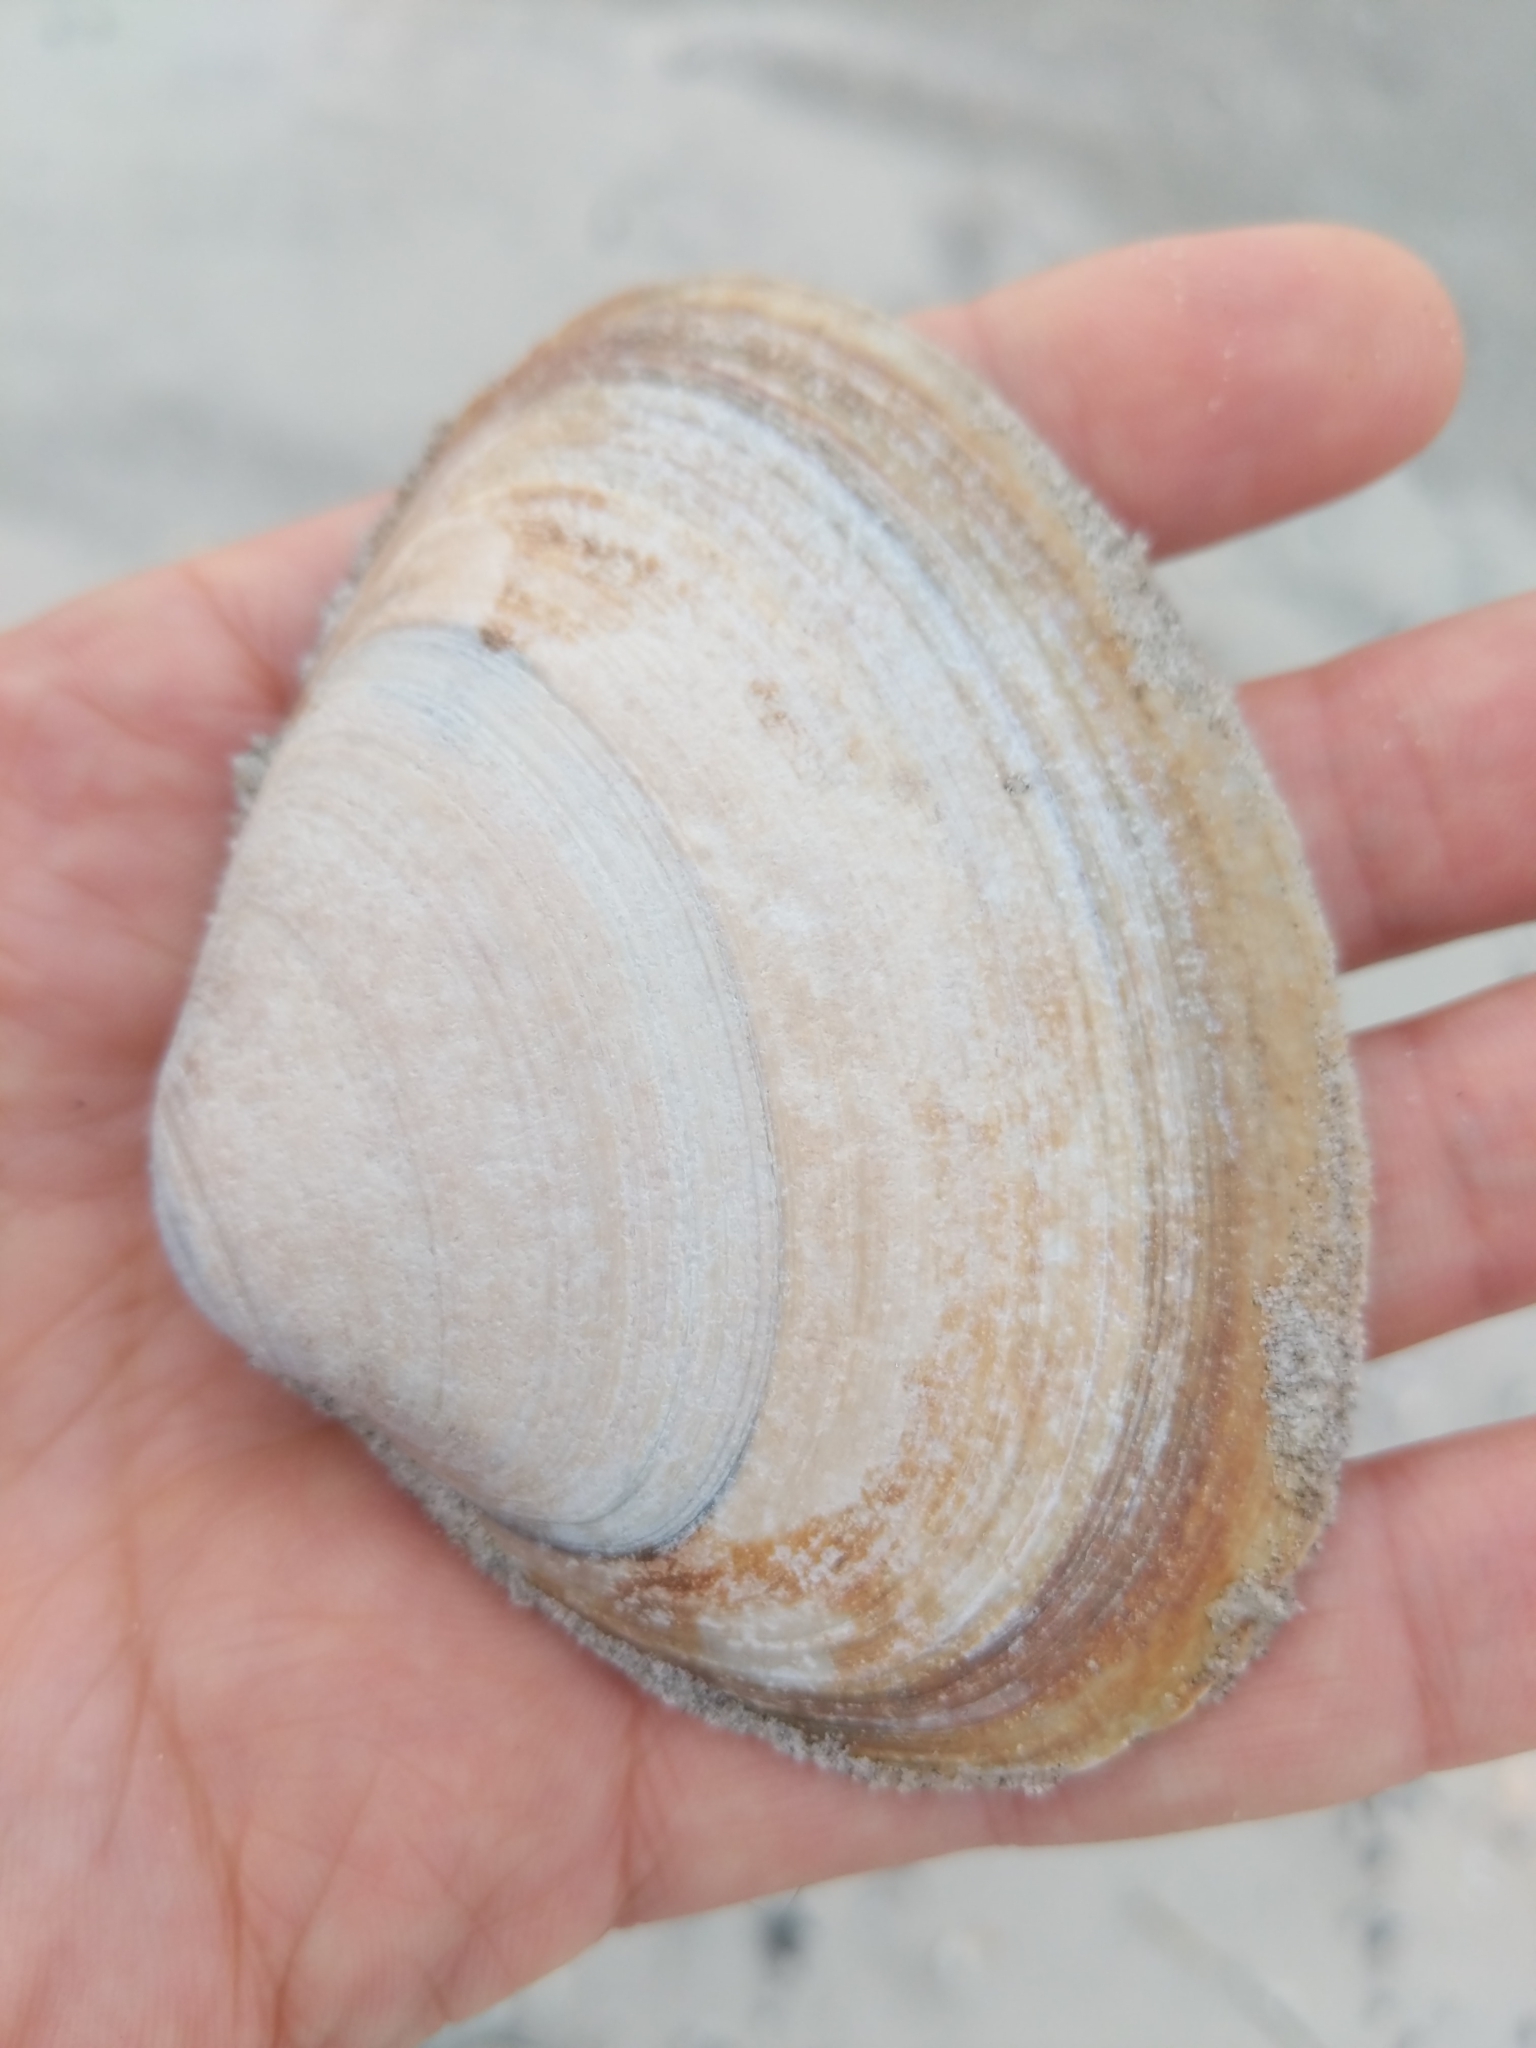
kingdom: Animalia
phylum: Mollusca
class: Bivalvia
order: Venerida
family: Mactridae
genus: Spisula
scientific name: Spisula solidissima
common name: Atlantic surf clam
